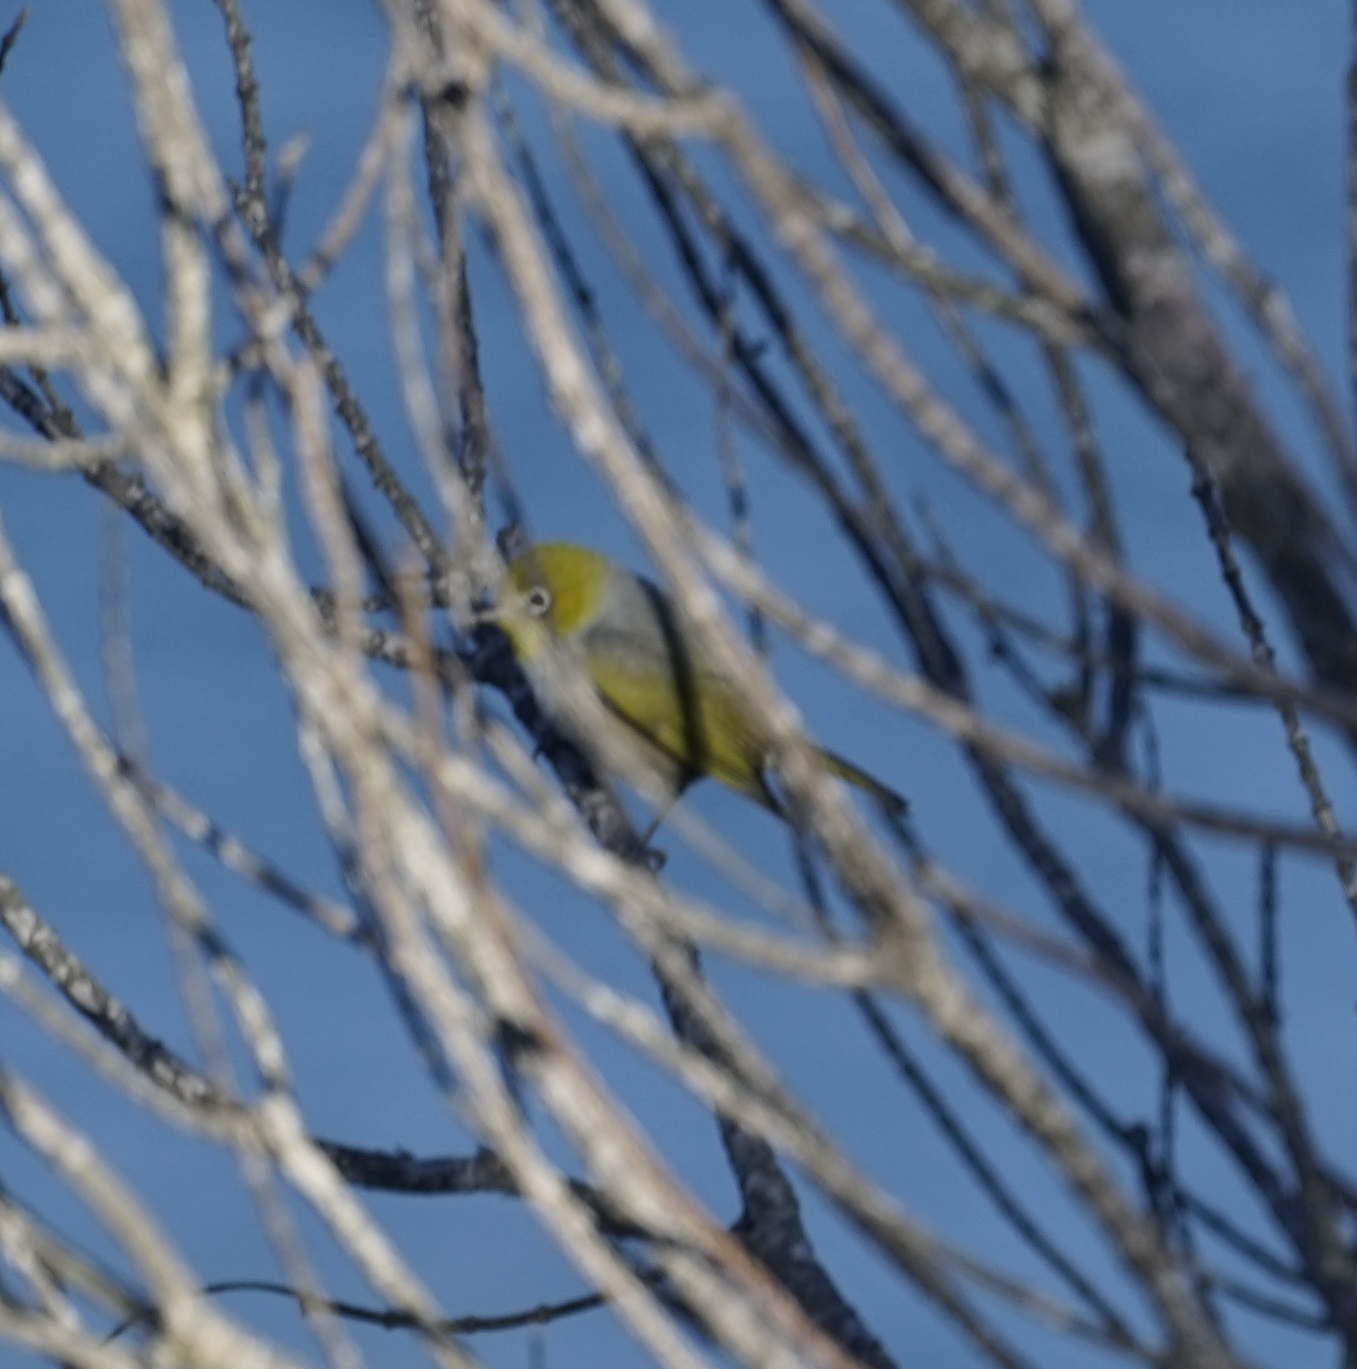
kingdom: Animalia
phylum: Chordata
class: Aves
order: Passeriformes
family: Zosteropidae
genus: Zosterops
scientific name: Zosterops lateralis
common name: Silvereye
